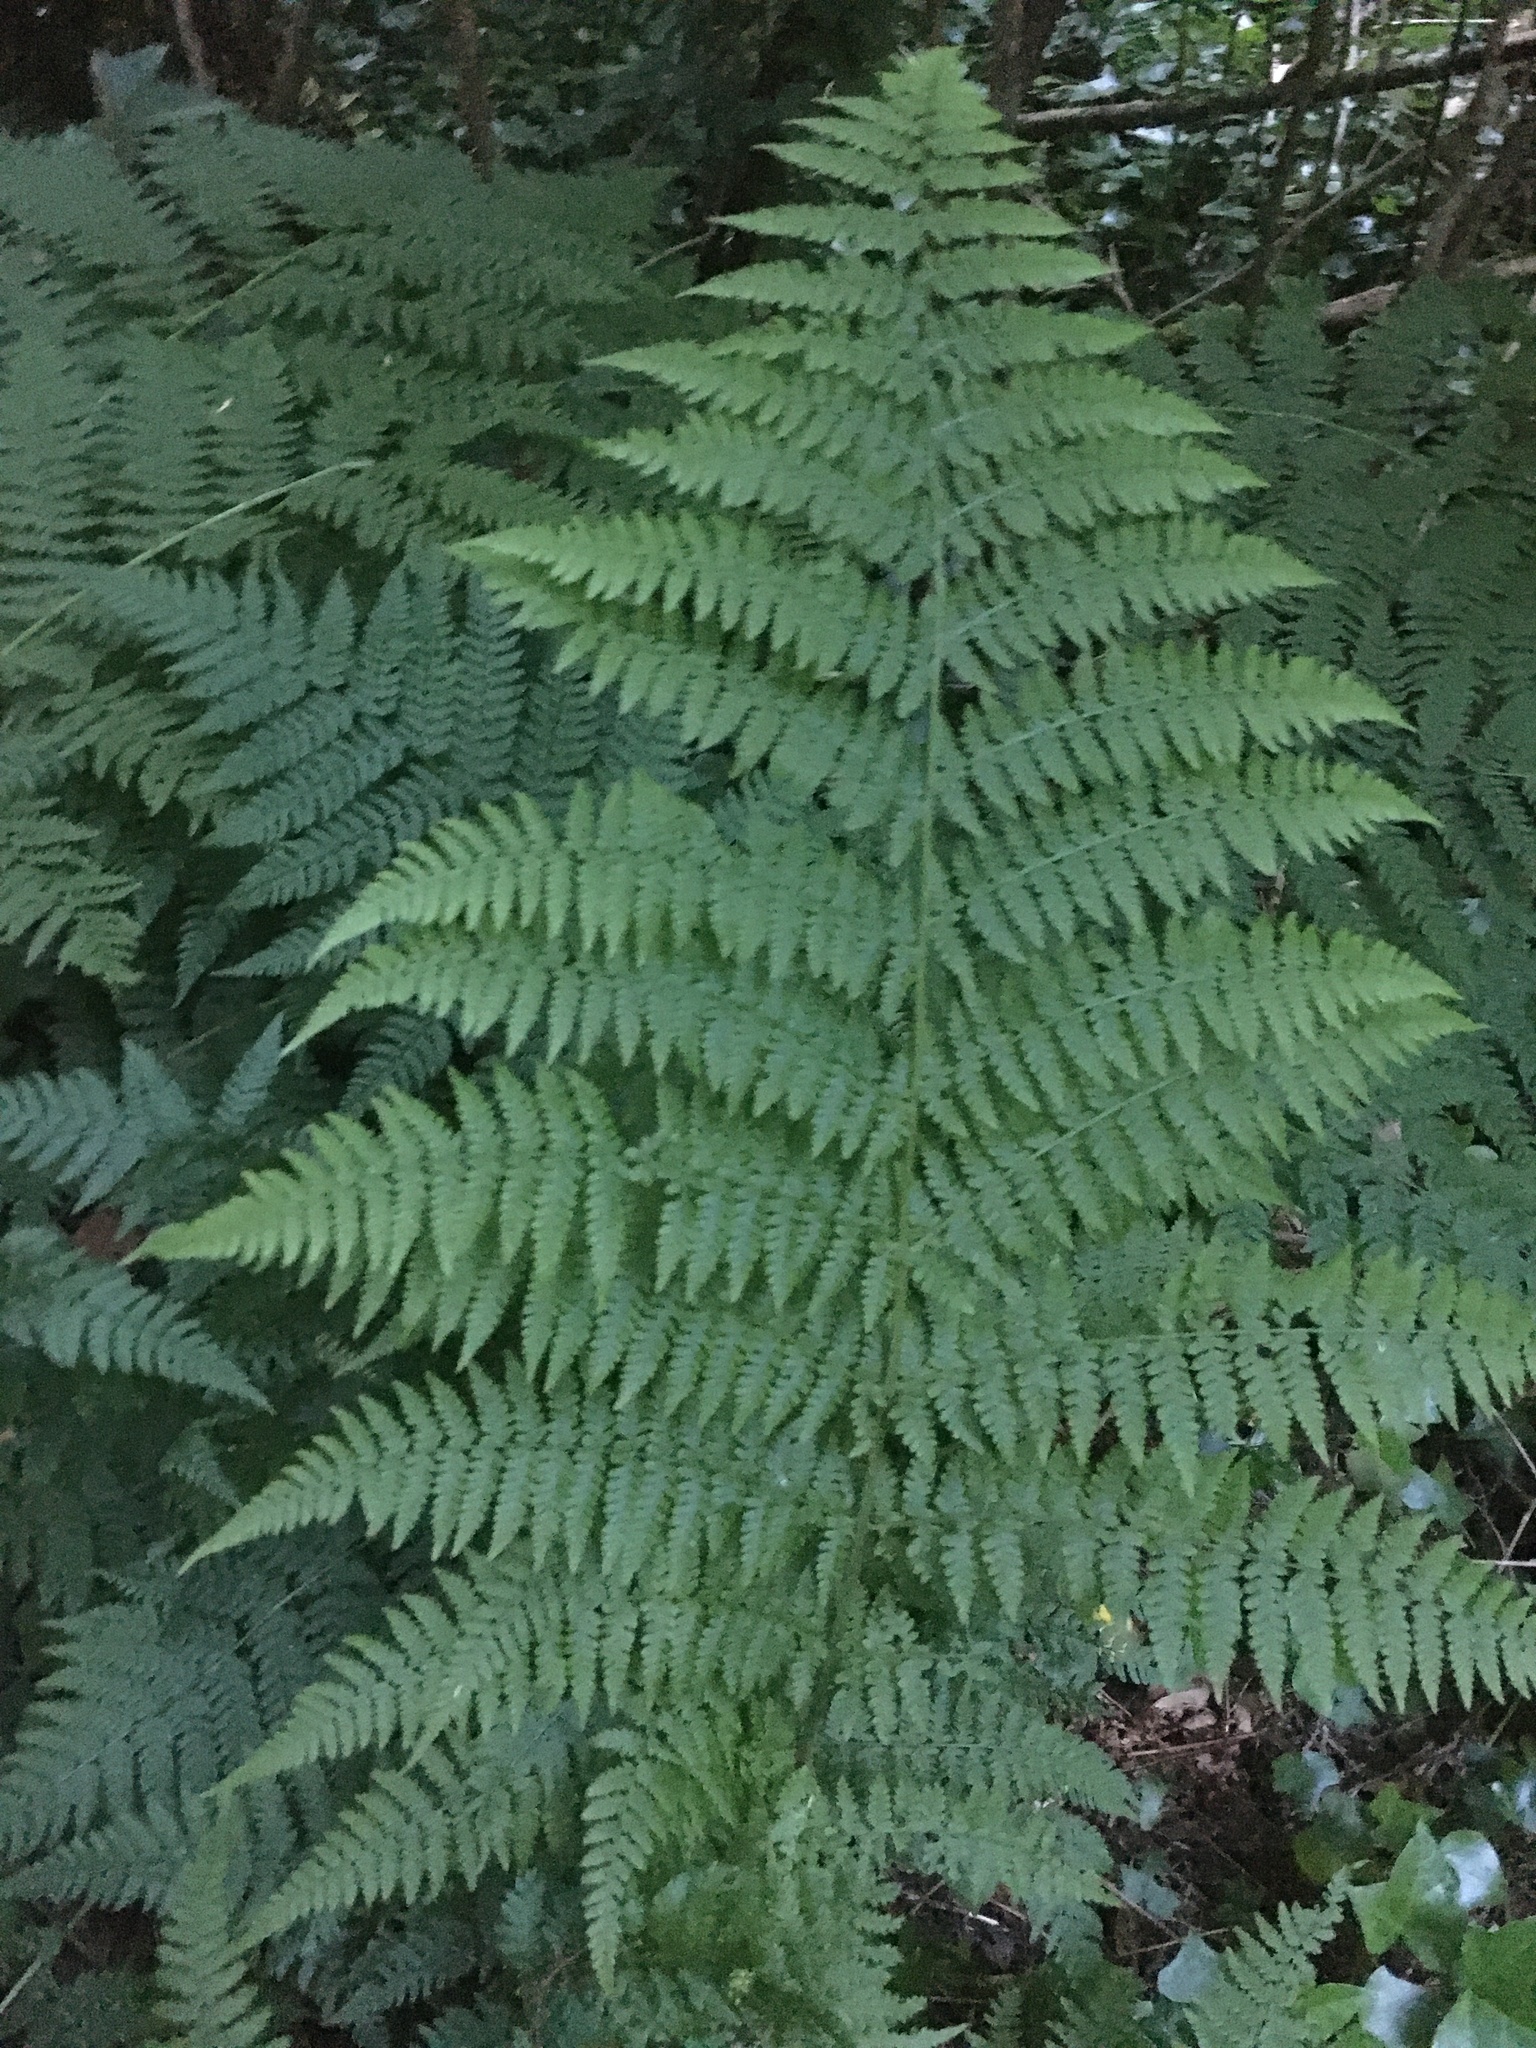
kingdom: Plantae
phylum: Tracheophyta
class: Polypodiopsida
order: Polypodiales
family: Athyriaceae
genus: Athyrium
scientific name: Athyrium filix-femina
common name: Lady fern
